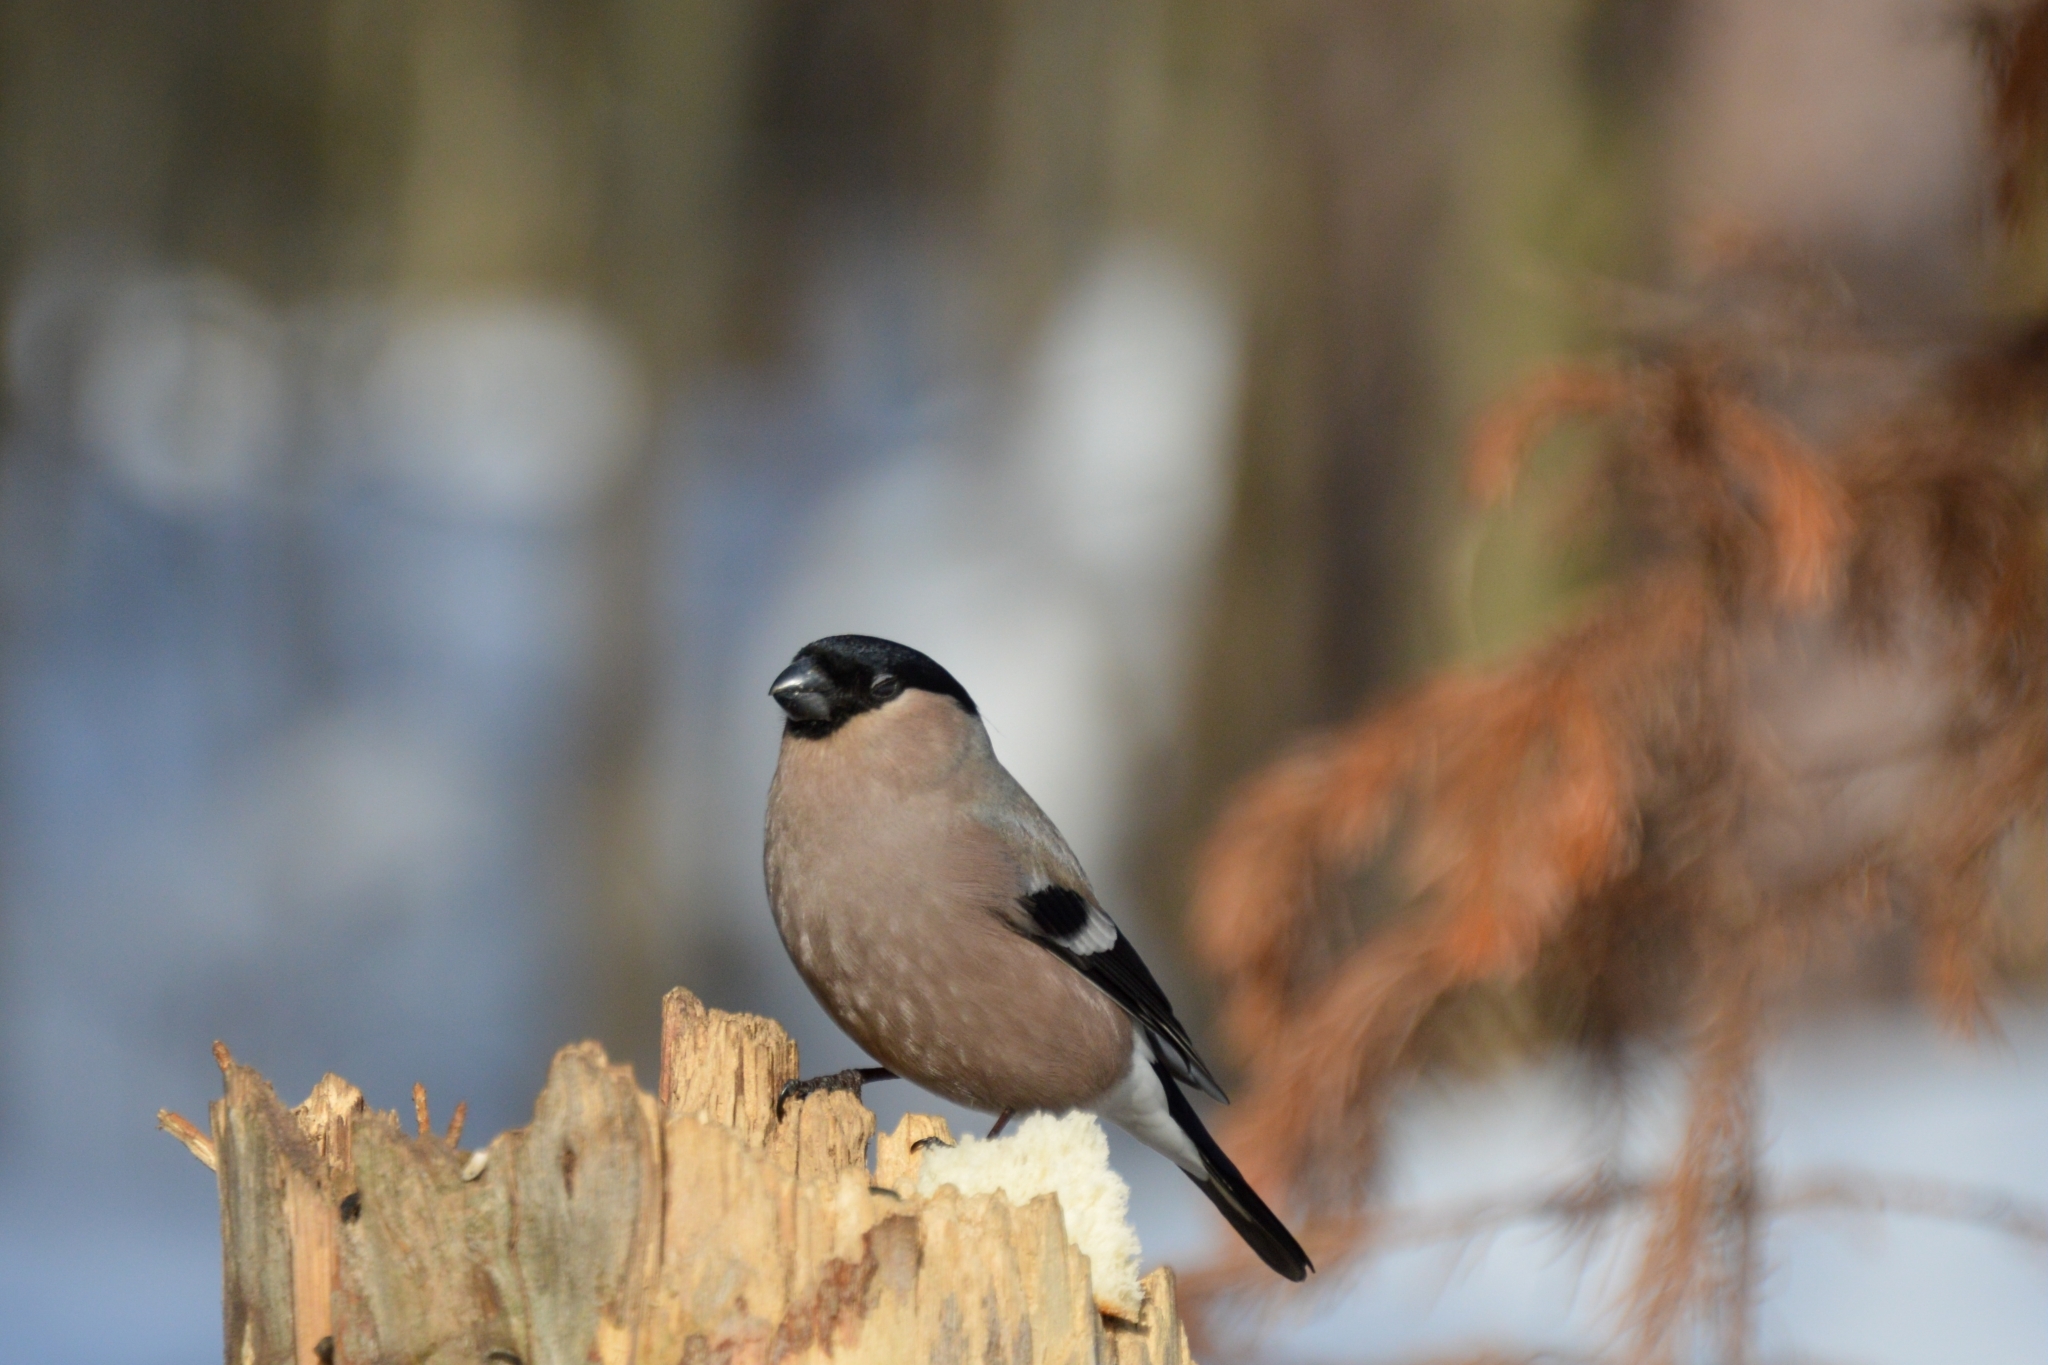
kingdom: Animalia
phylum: Chordata
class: Aves
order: Passeriformes
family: Fringillidae
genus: Pyrrhula
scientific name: Pyrrhula pyrrhula
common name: Eurasian bullfinch
